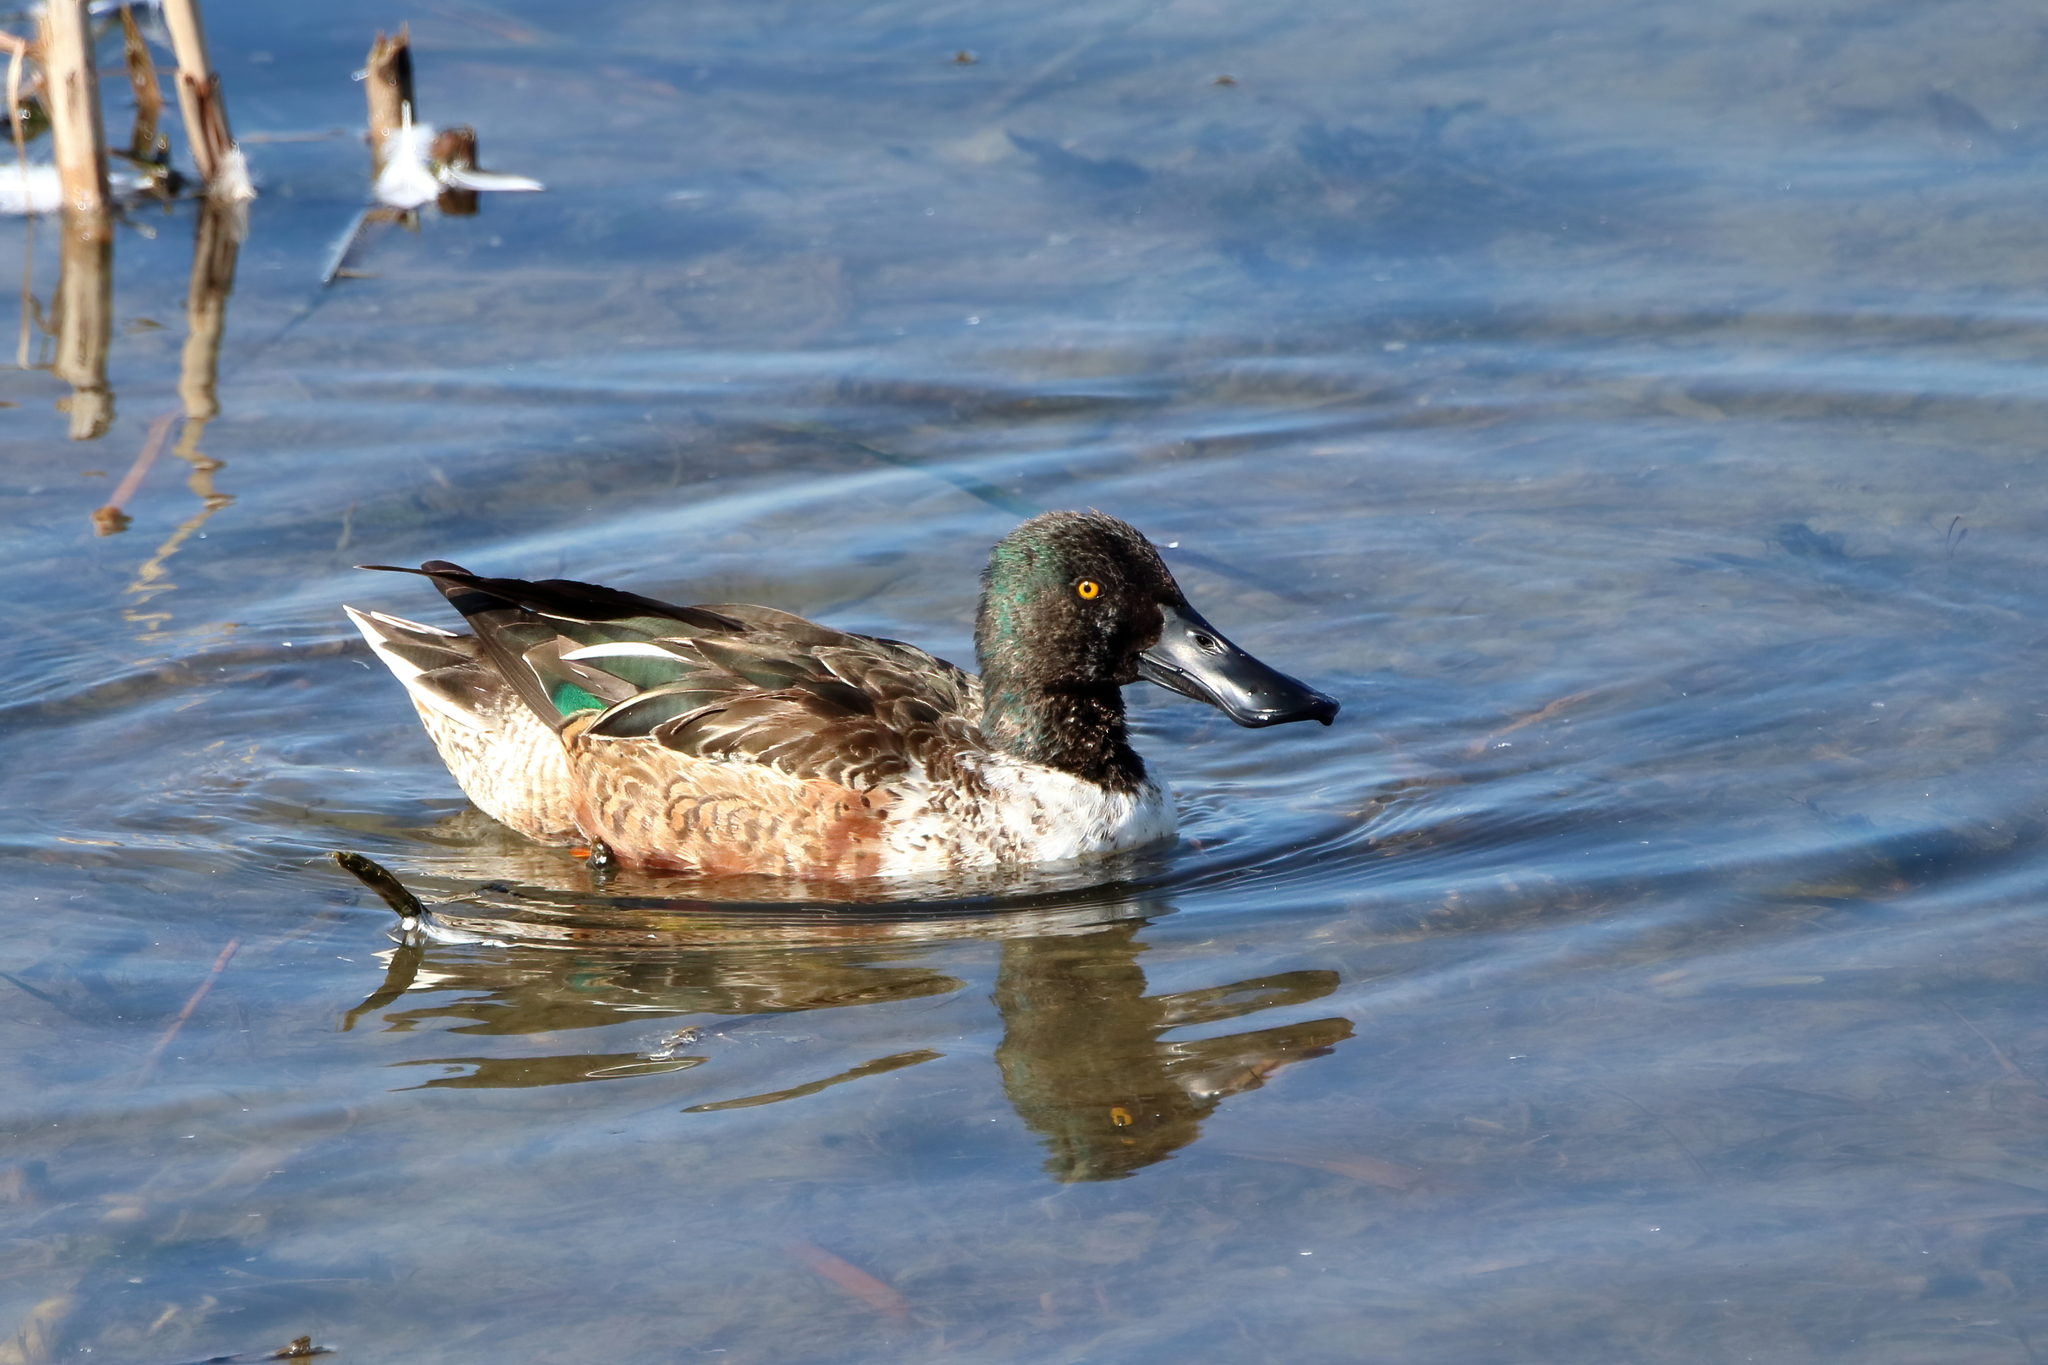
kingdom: Animalia
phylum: Chordata
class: Aves
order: Anseriformes
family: Anatidae
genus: Spatula
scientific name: Spatula clypeata
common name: Northern shoveler
